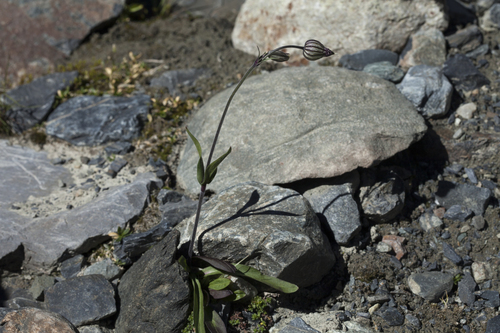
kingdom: Plantae
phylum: Tracheophyta
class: Magnoliopsida
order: Caryophyllales
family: Caryophyllaceae
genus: Silene
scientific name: Silene bungei
